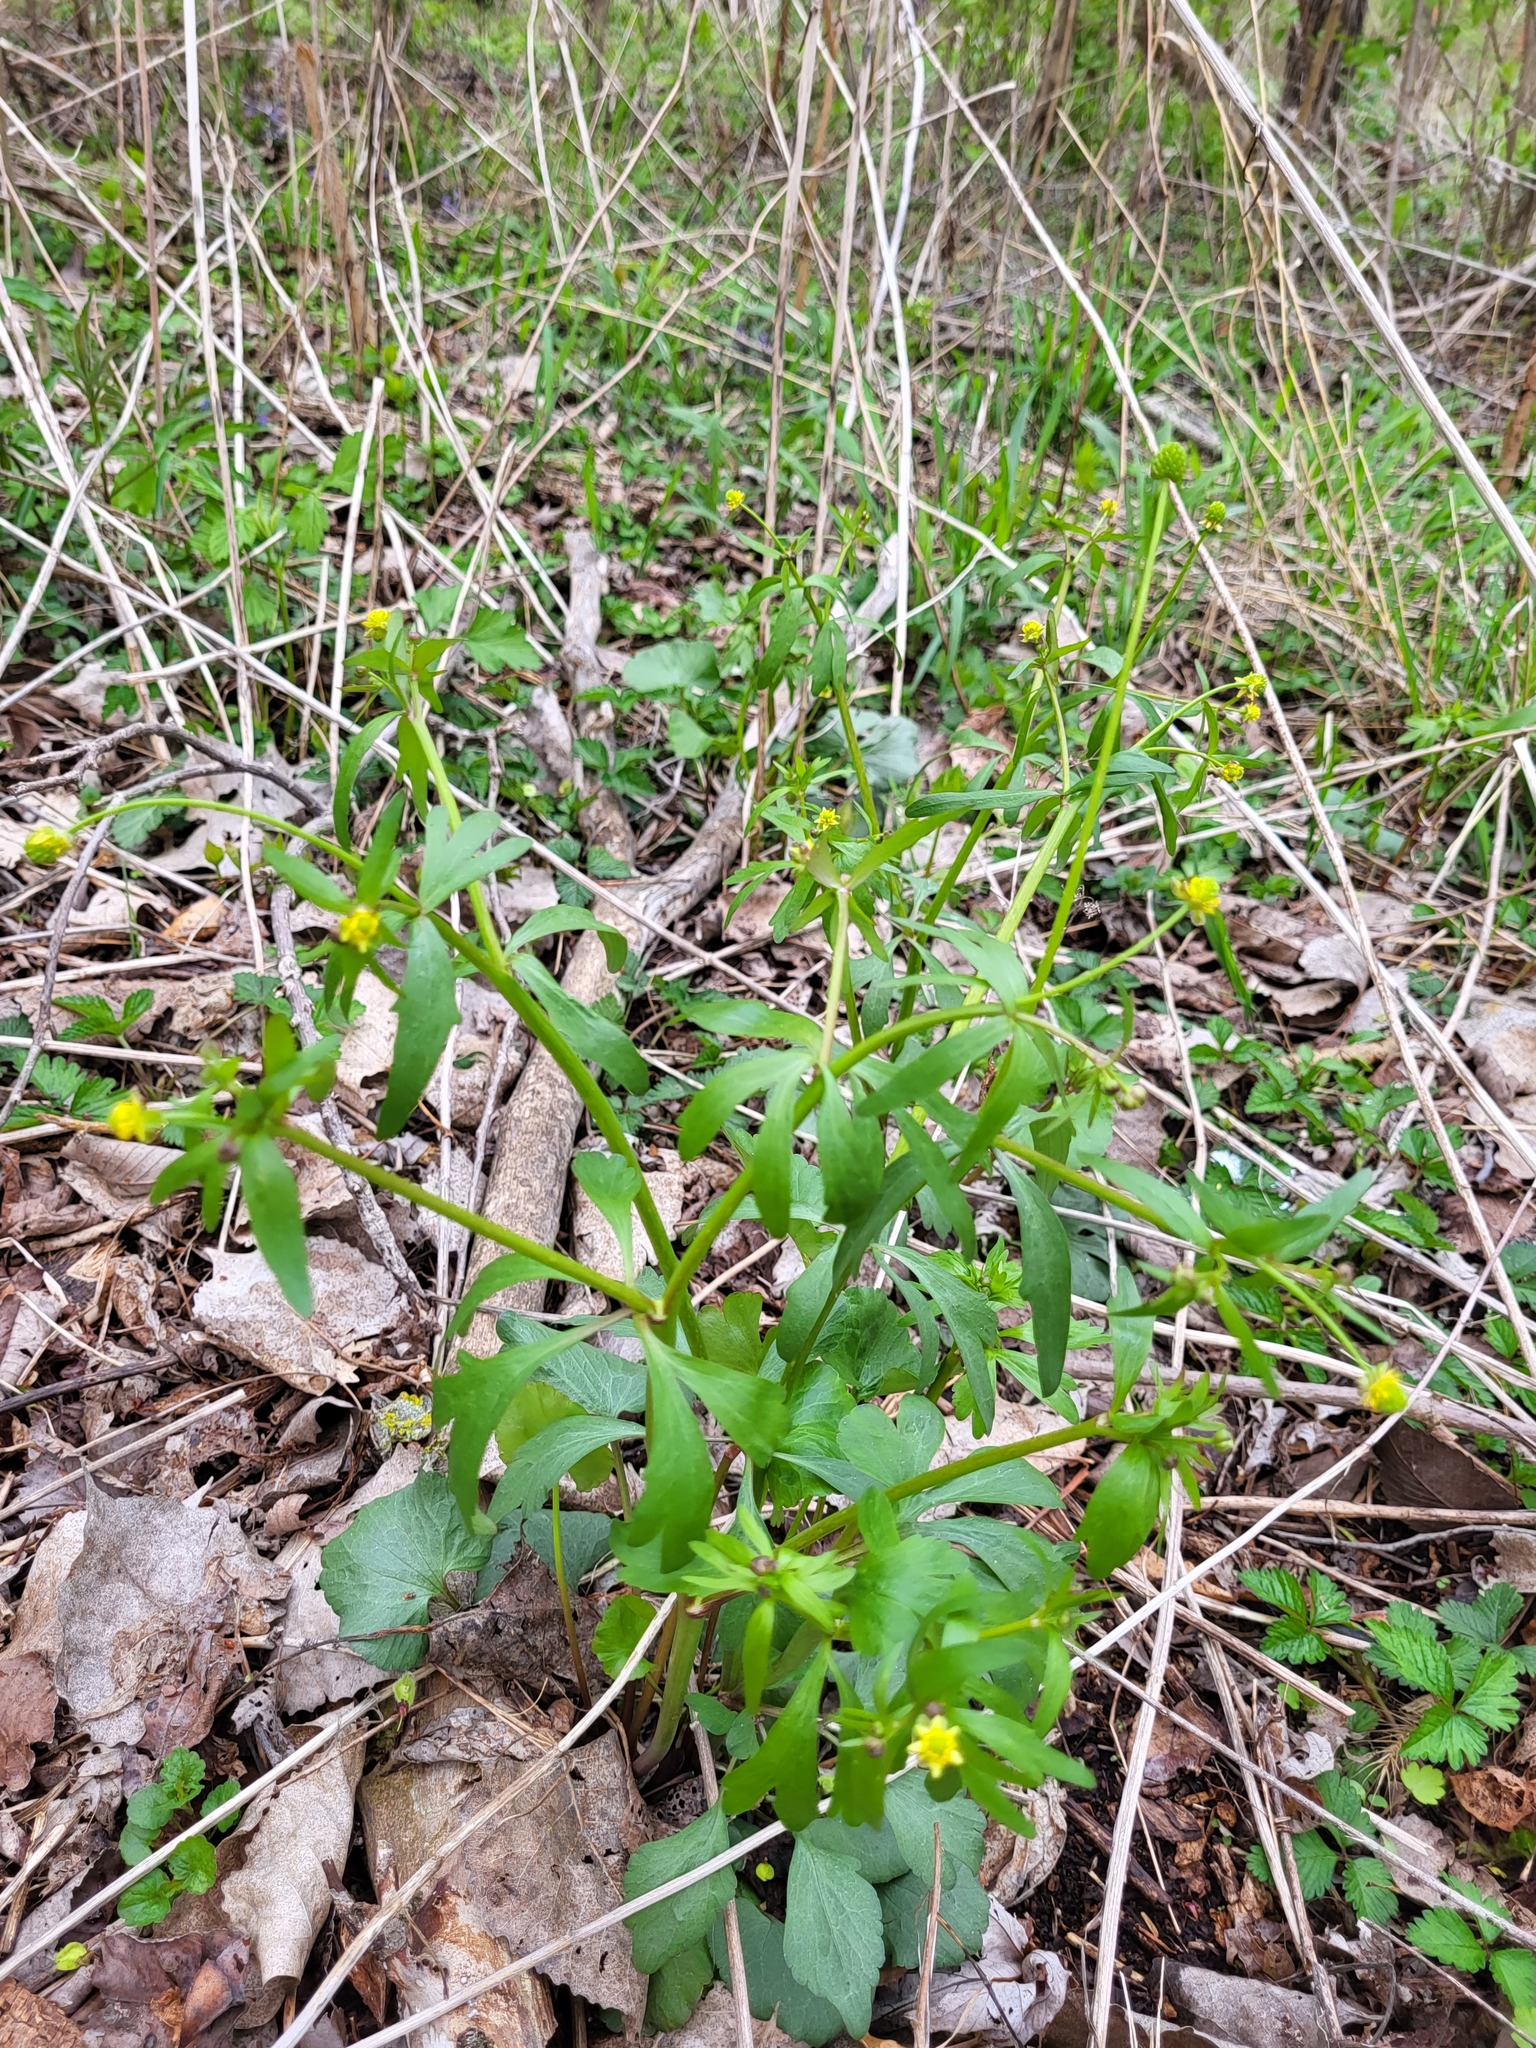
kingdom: Plantae
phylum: Tracheophyta
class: Magnoliopsida
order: Ranunculales
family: Ranunculaceae
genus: Ranunculus
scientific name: Ranunculus abortivus
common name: Early wood buttercup
